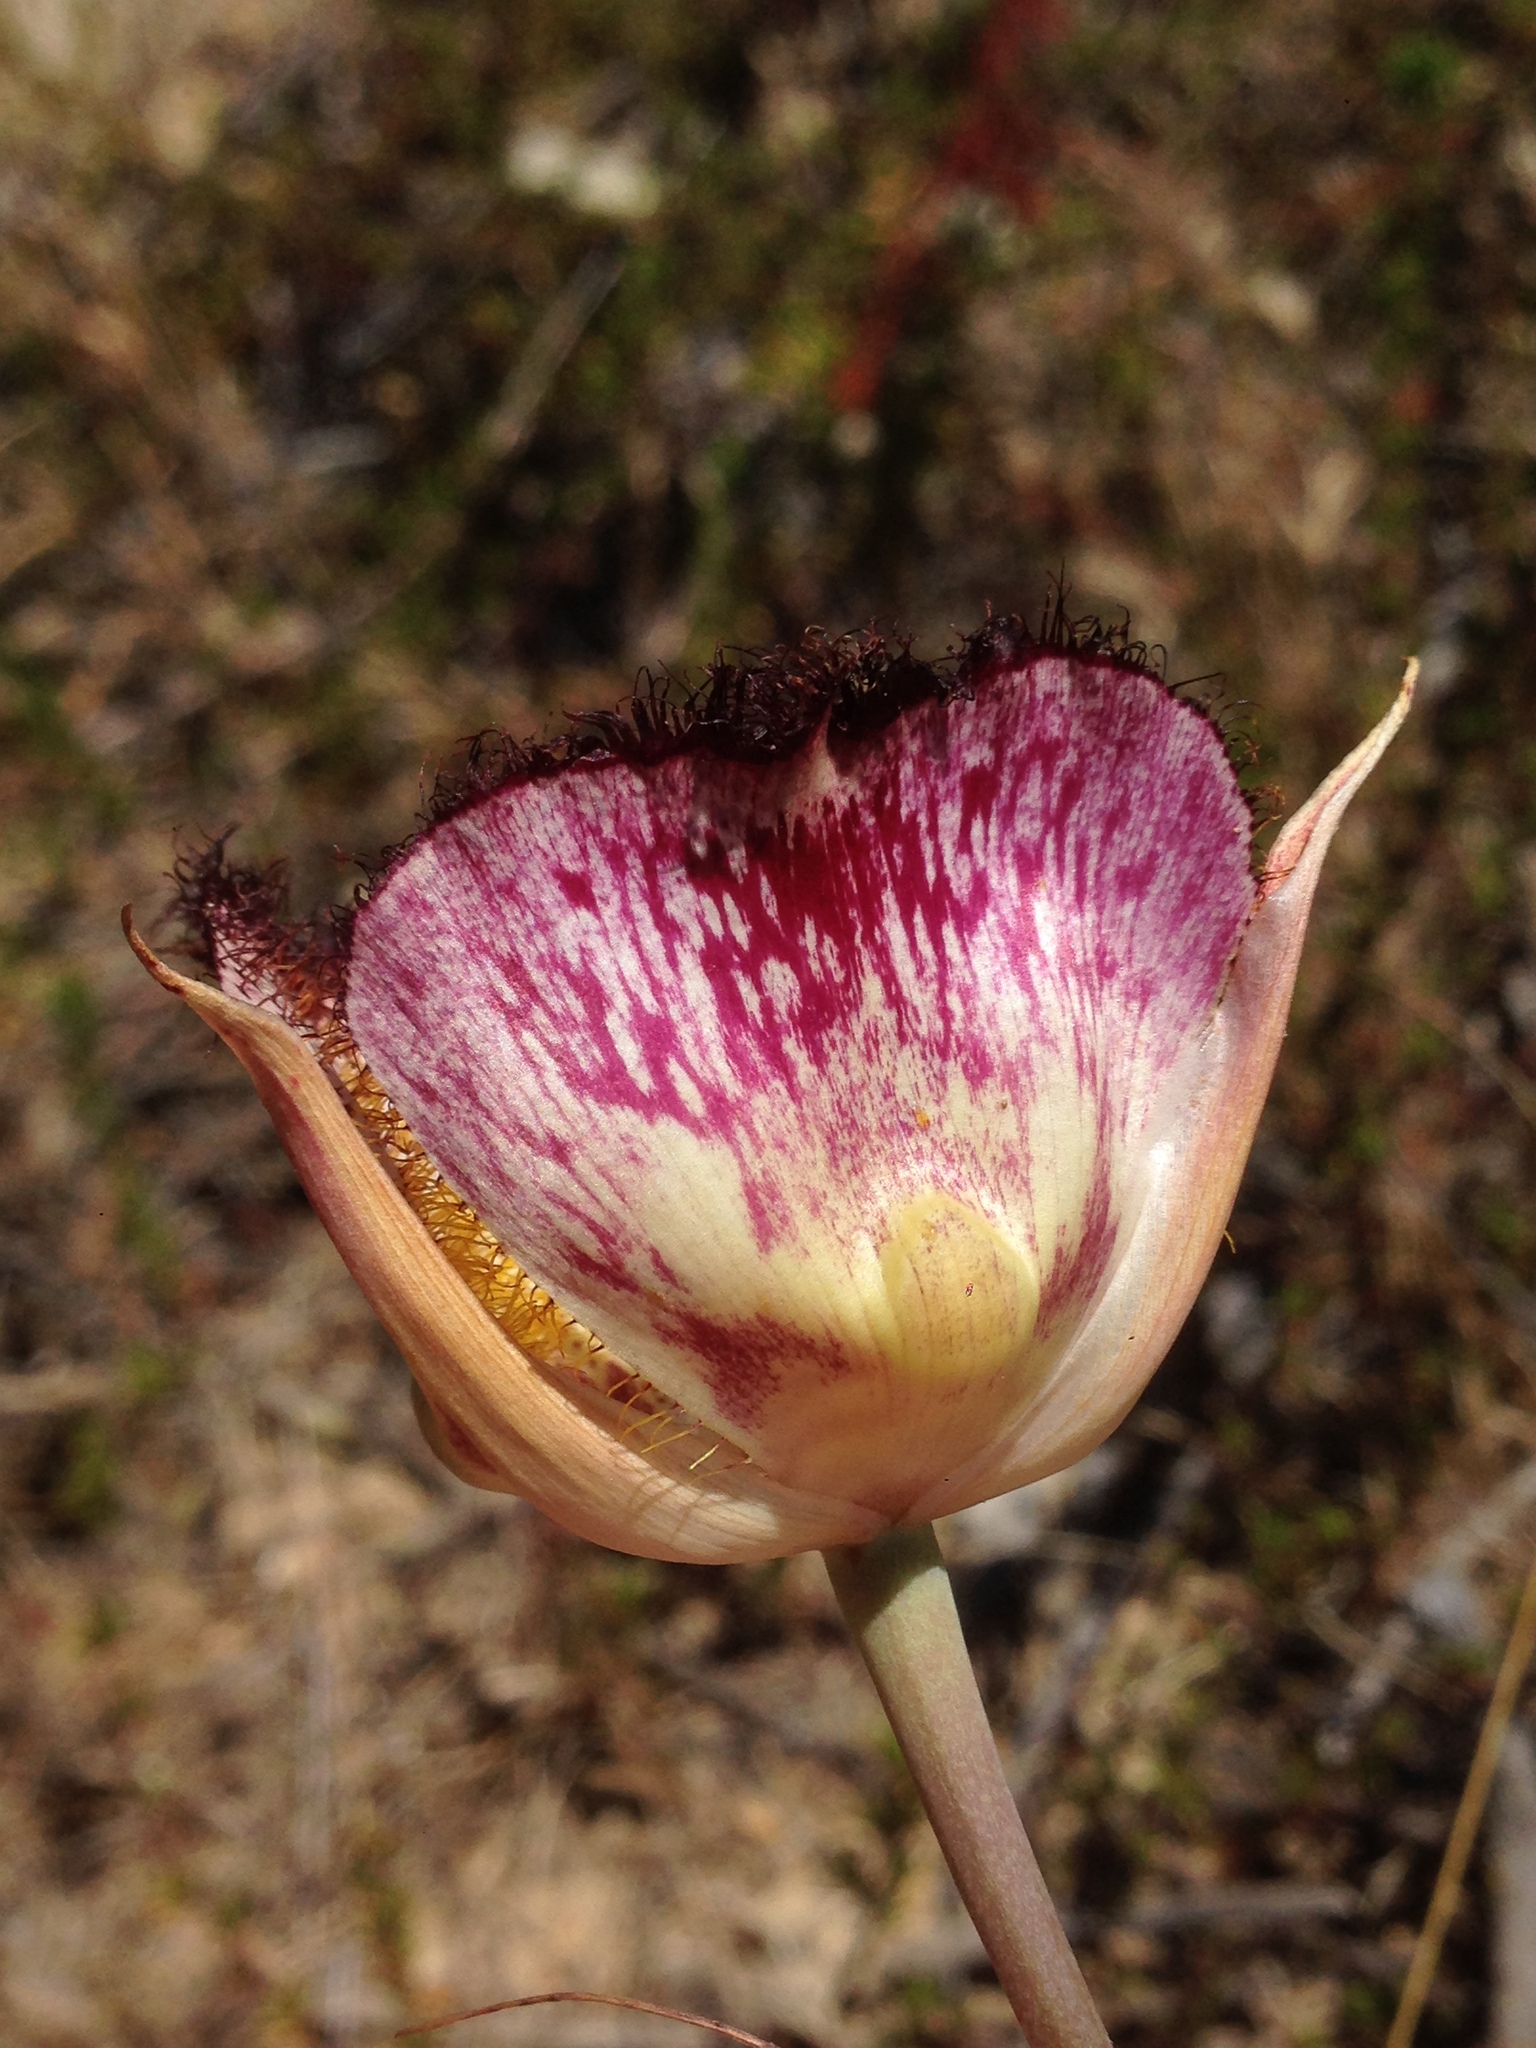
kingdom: Plantae
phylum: Tracheophyta
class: Liliopsida
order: Liliales
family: Liliaceae
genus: Calochortus
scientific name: Calochortus fimbriatus
